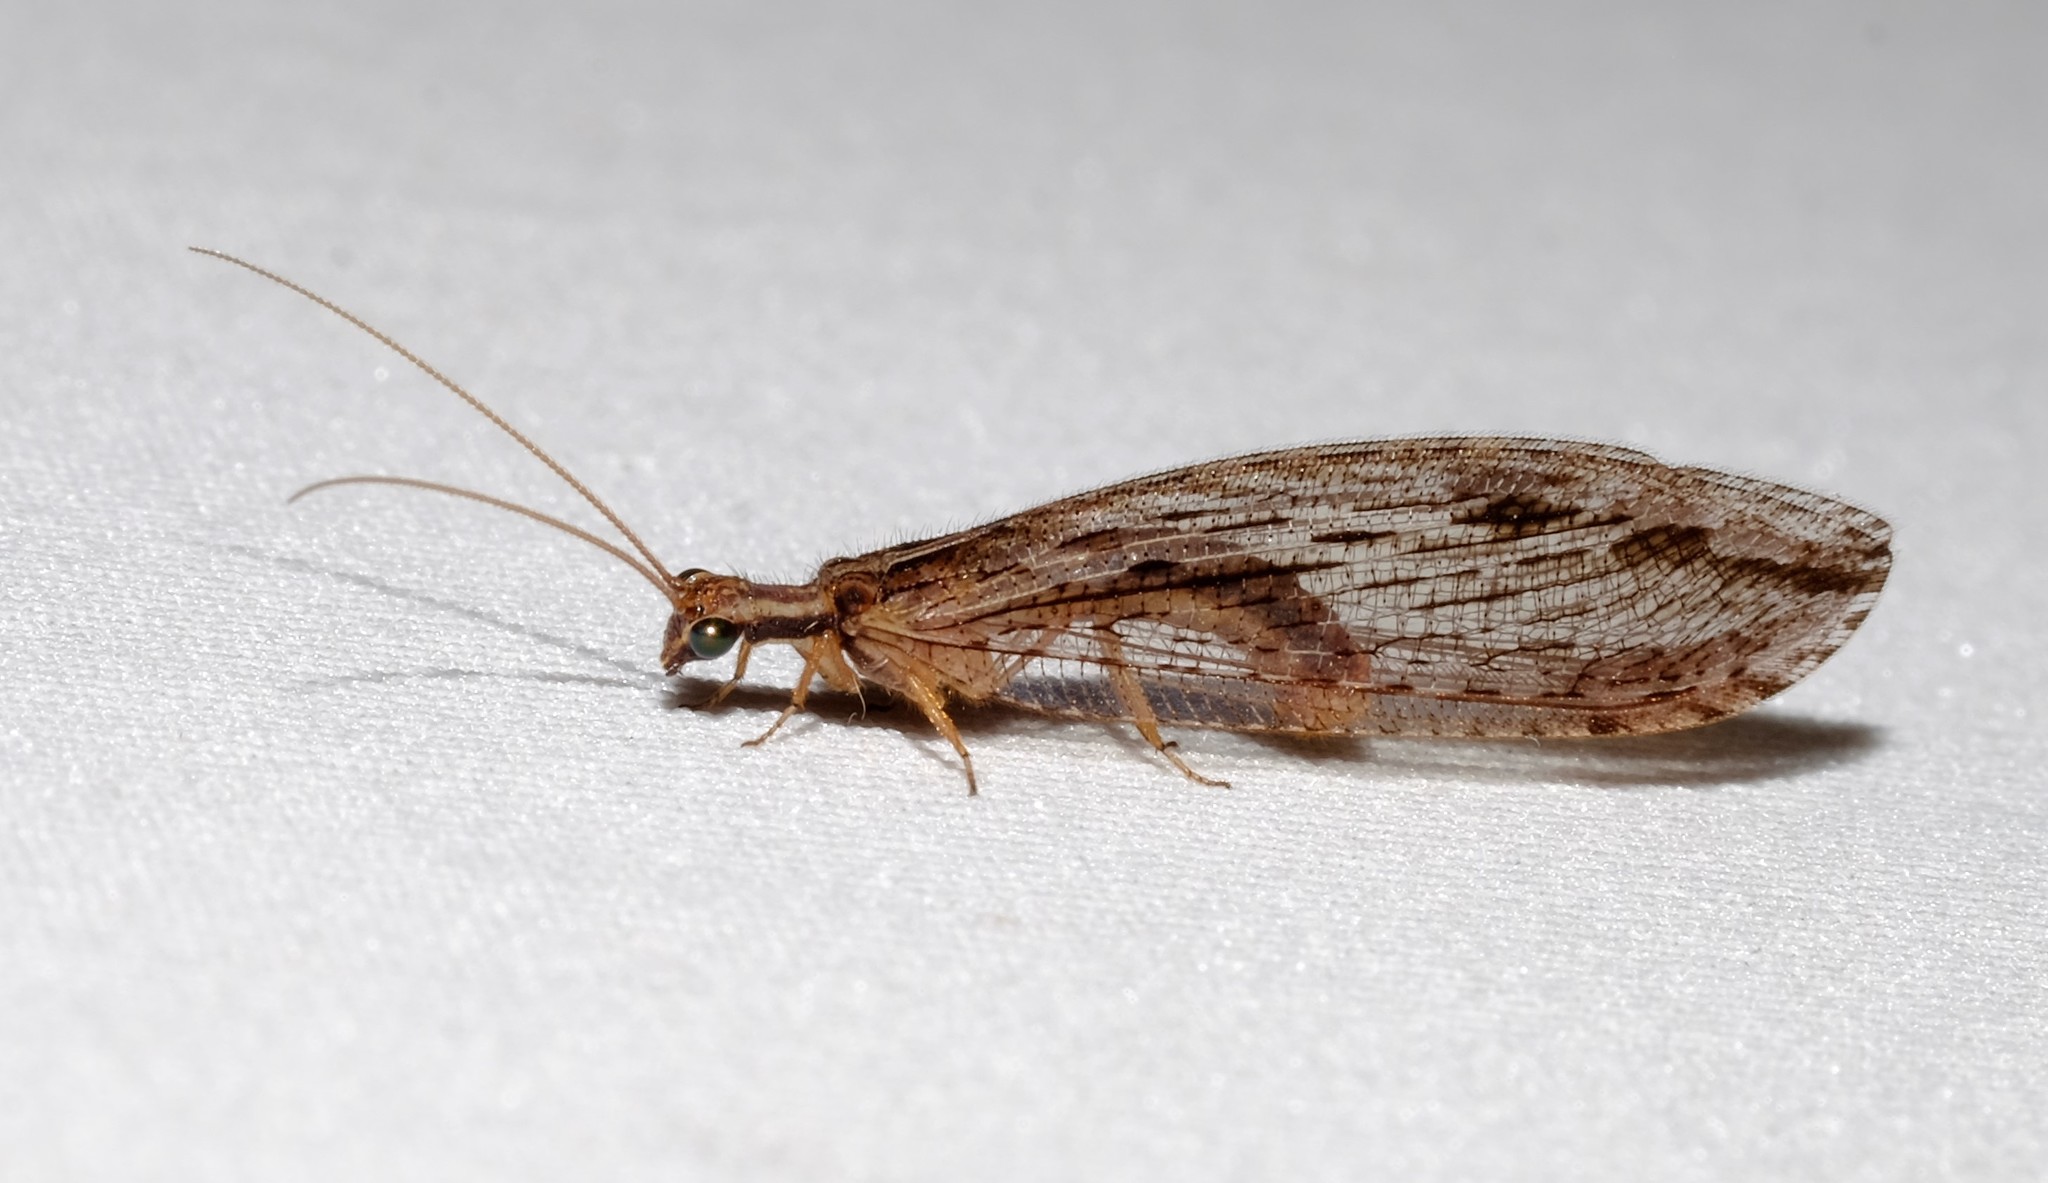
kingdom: Animalia
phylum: Arthropoda
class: Insecta
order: Neuroptera
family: Osmylidae
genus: Stenosmylus
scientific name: Stenosmylus stenopterus
